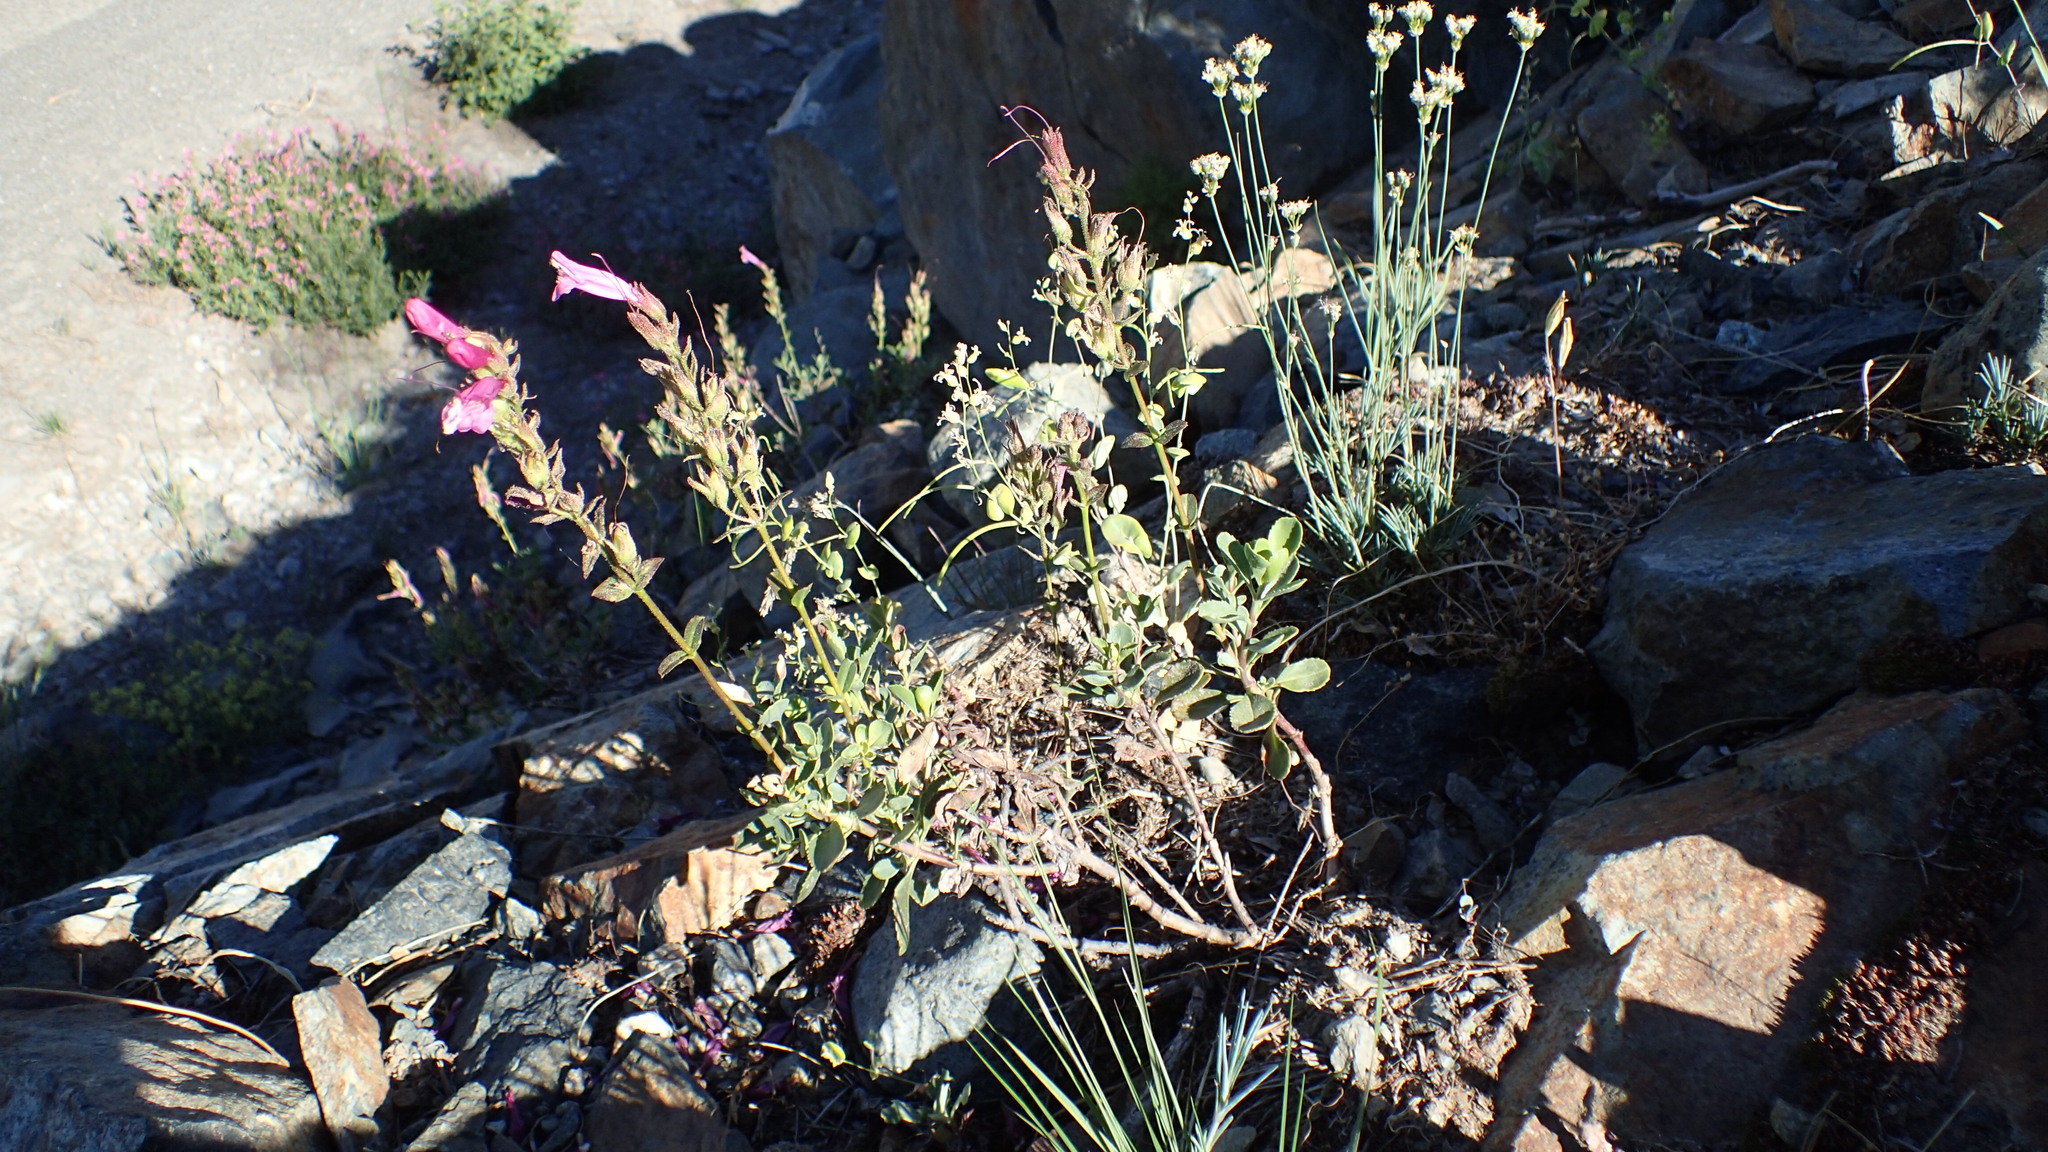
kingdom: Plantae
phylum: Tracheophyta
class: Magnoliopsida
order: Lamiales
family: Plantaginaceae
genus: Penstemon
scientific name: Penstemon newberryi
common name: Mountain-pride
